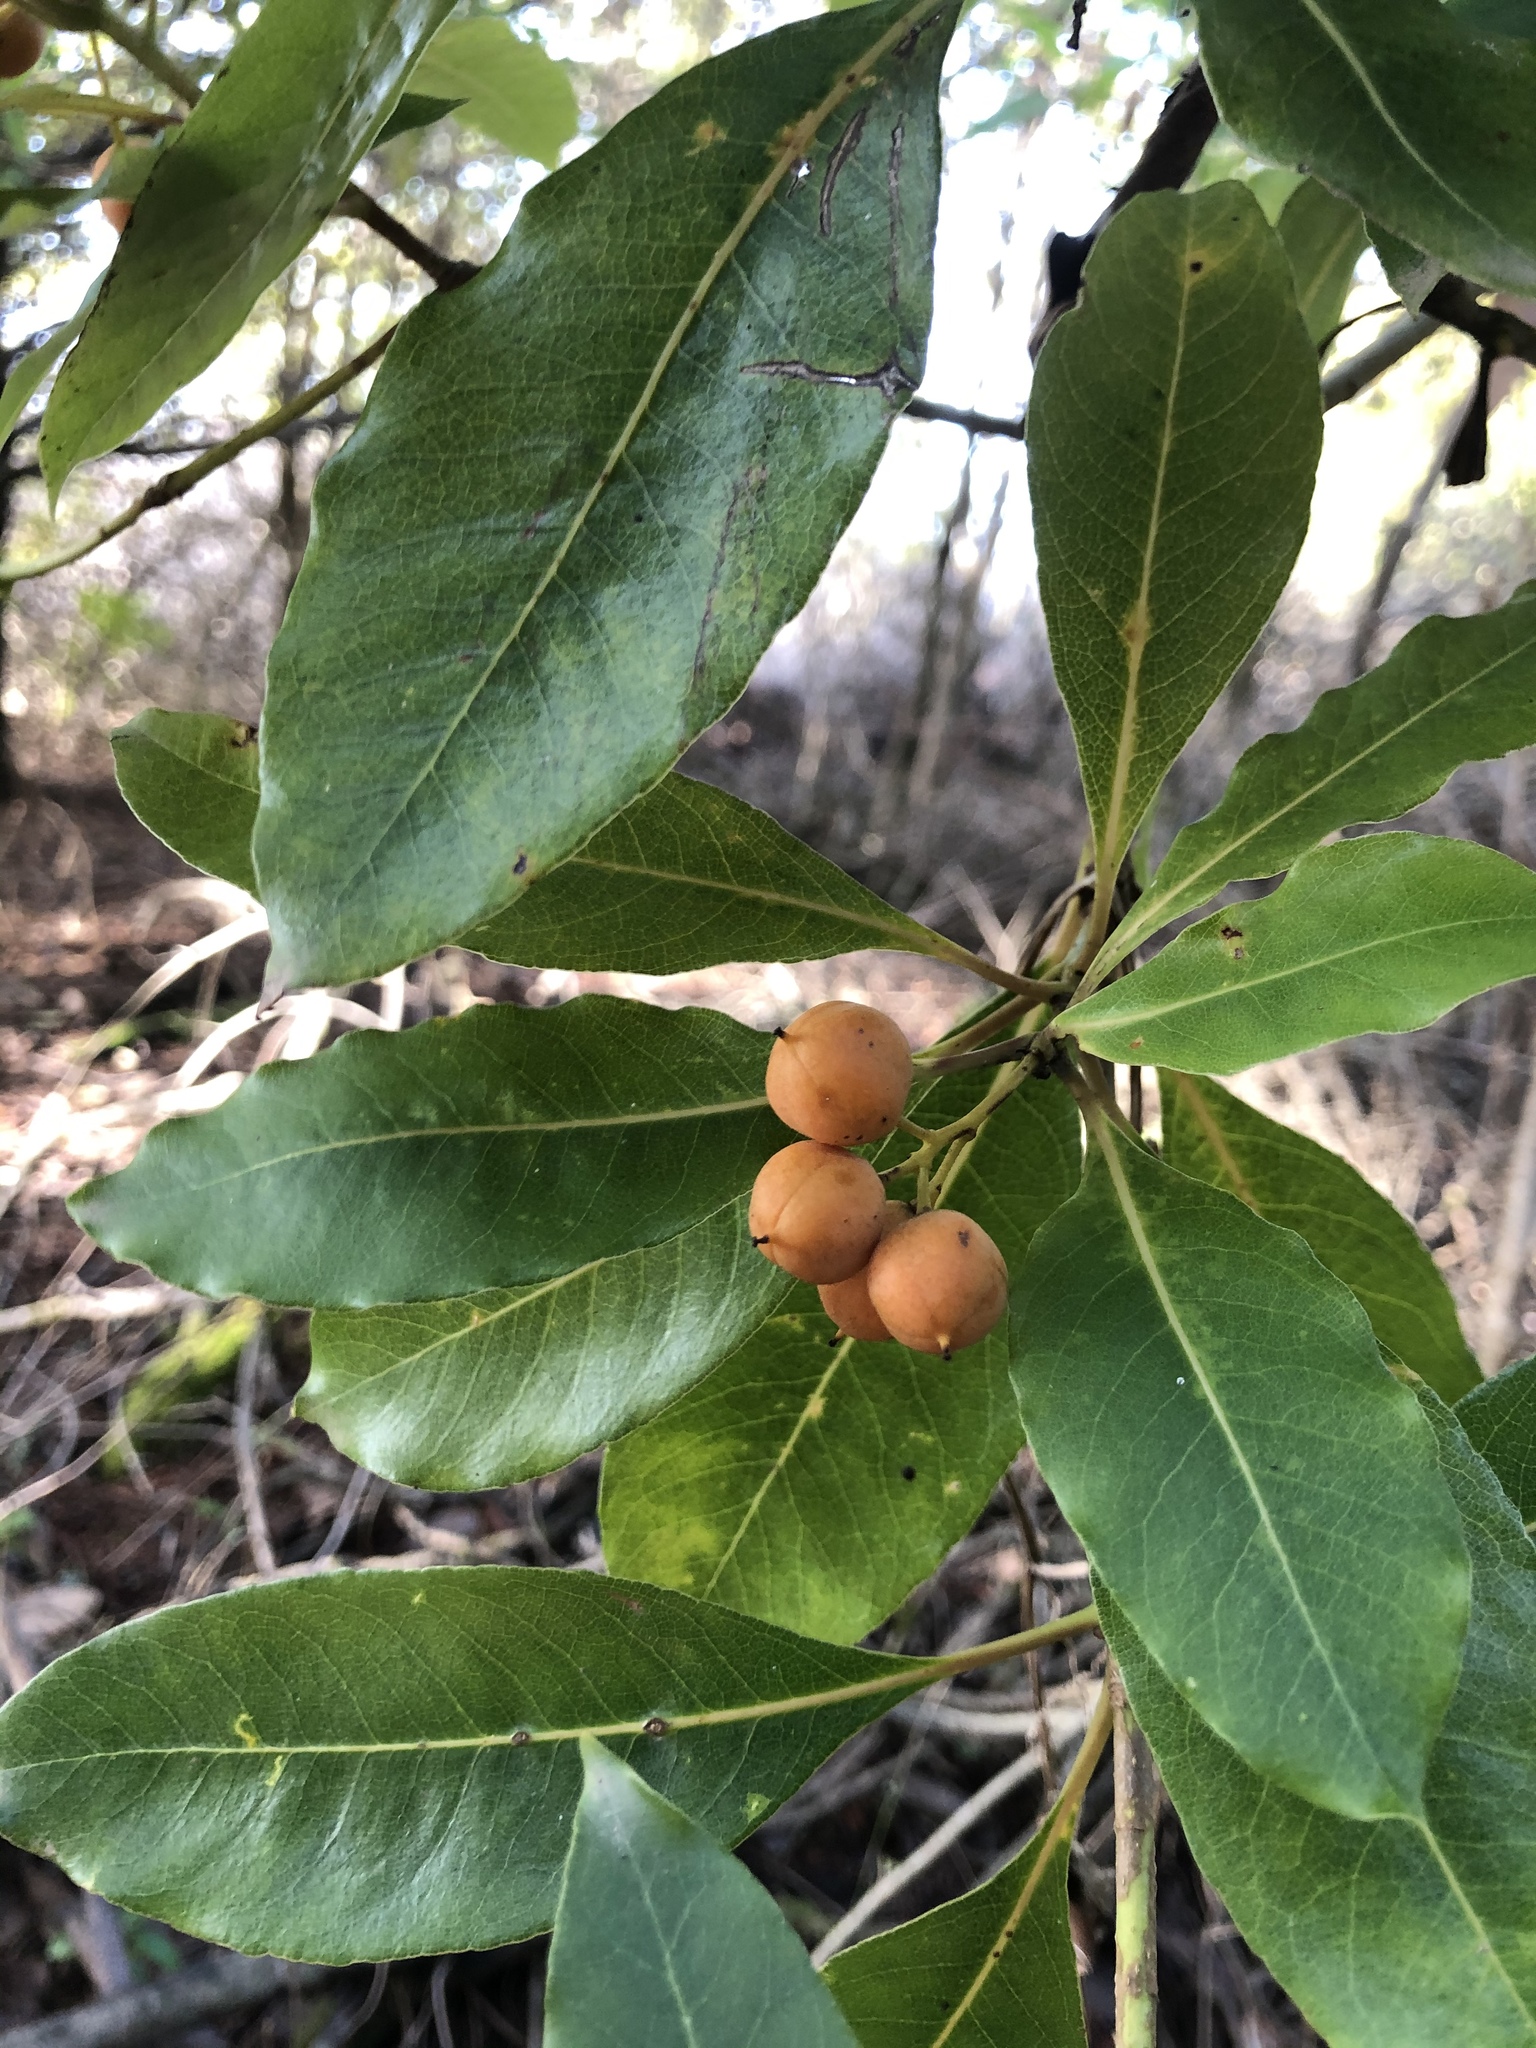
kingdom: Plantae
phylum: Tracheophyta
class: Magnoliopsida
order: Apiales
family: Pittosporaceae
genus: Pittosporum
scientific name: Pittosporum undulatum
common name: Australian cheesewood
